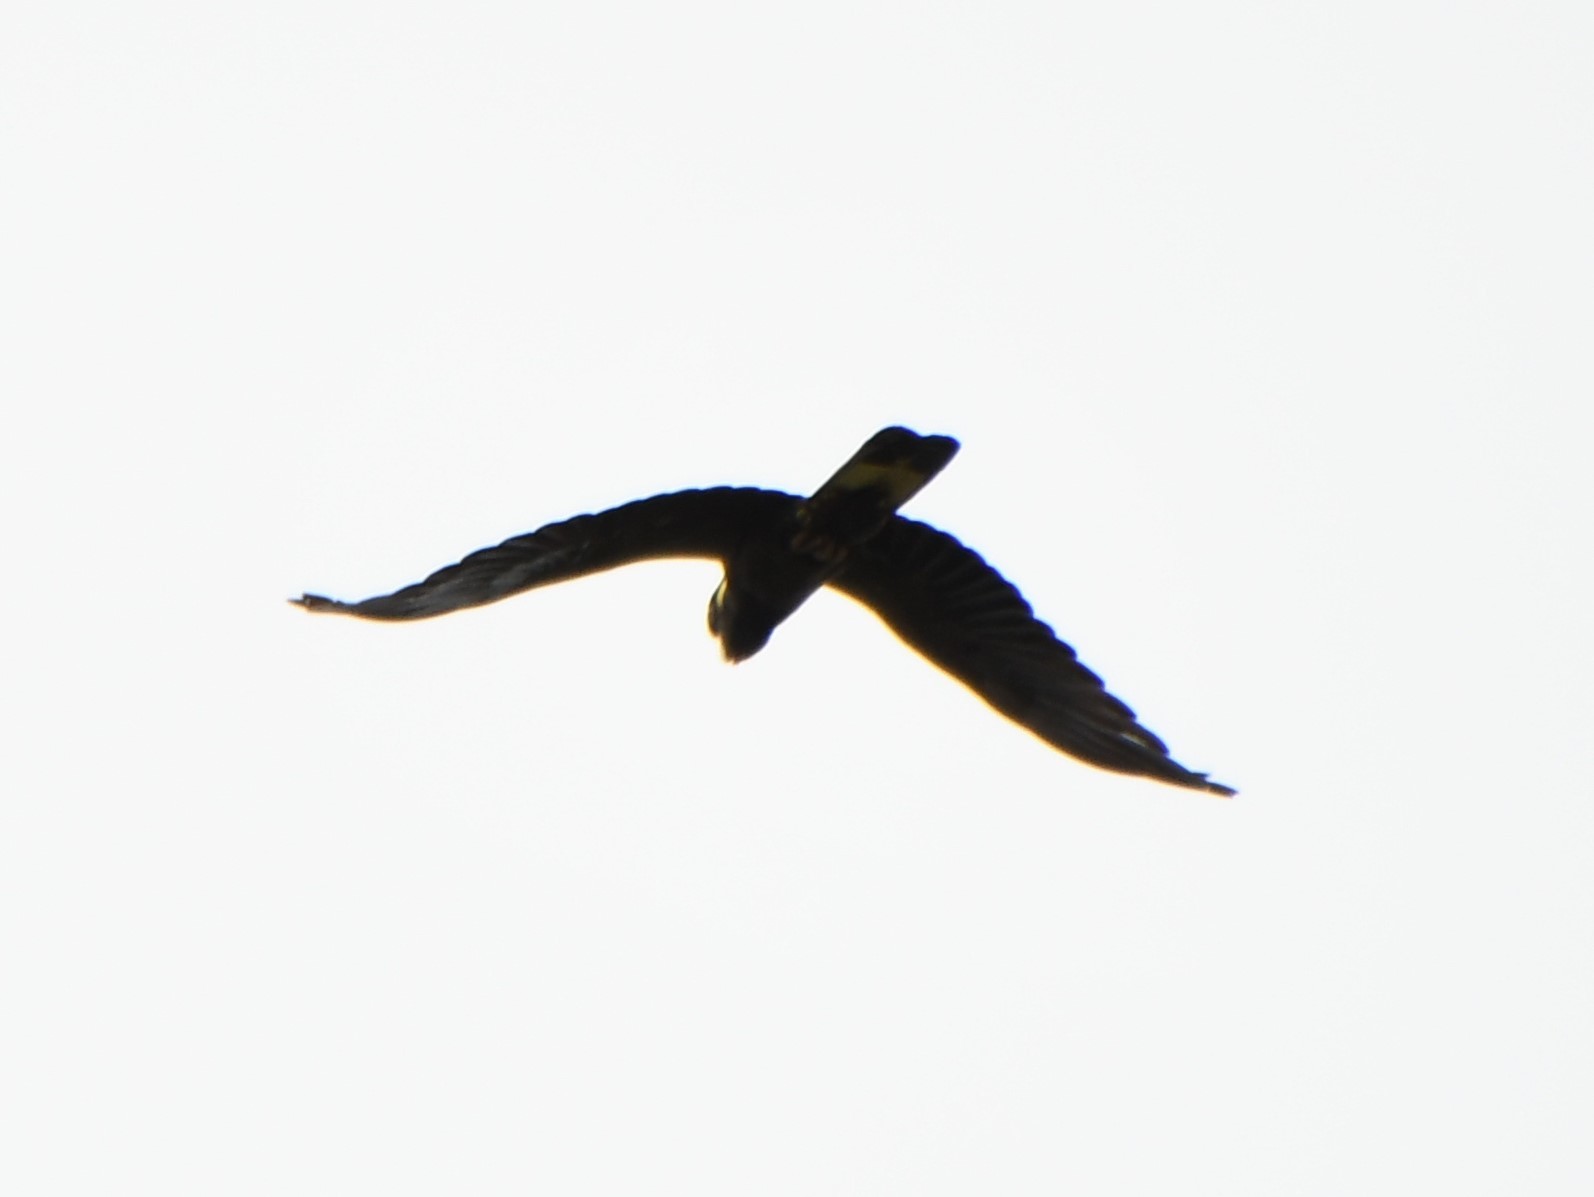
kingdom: Animalia
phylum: Chordata
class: Aves
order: Psittaciformes
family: Cacatuidae
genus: Zanda
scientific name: Zanda funerea
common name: Yellow-tailed black-cockatoo
